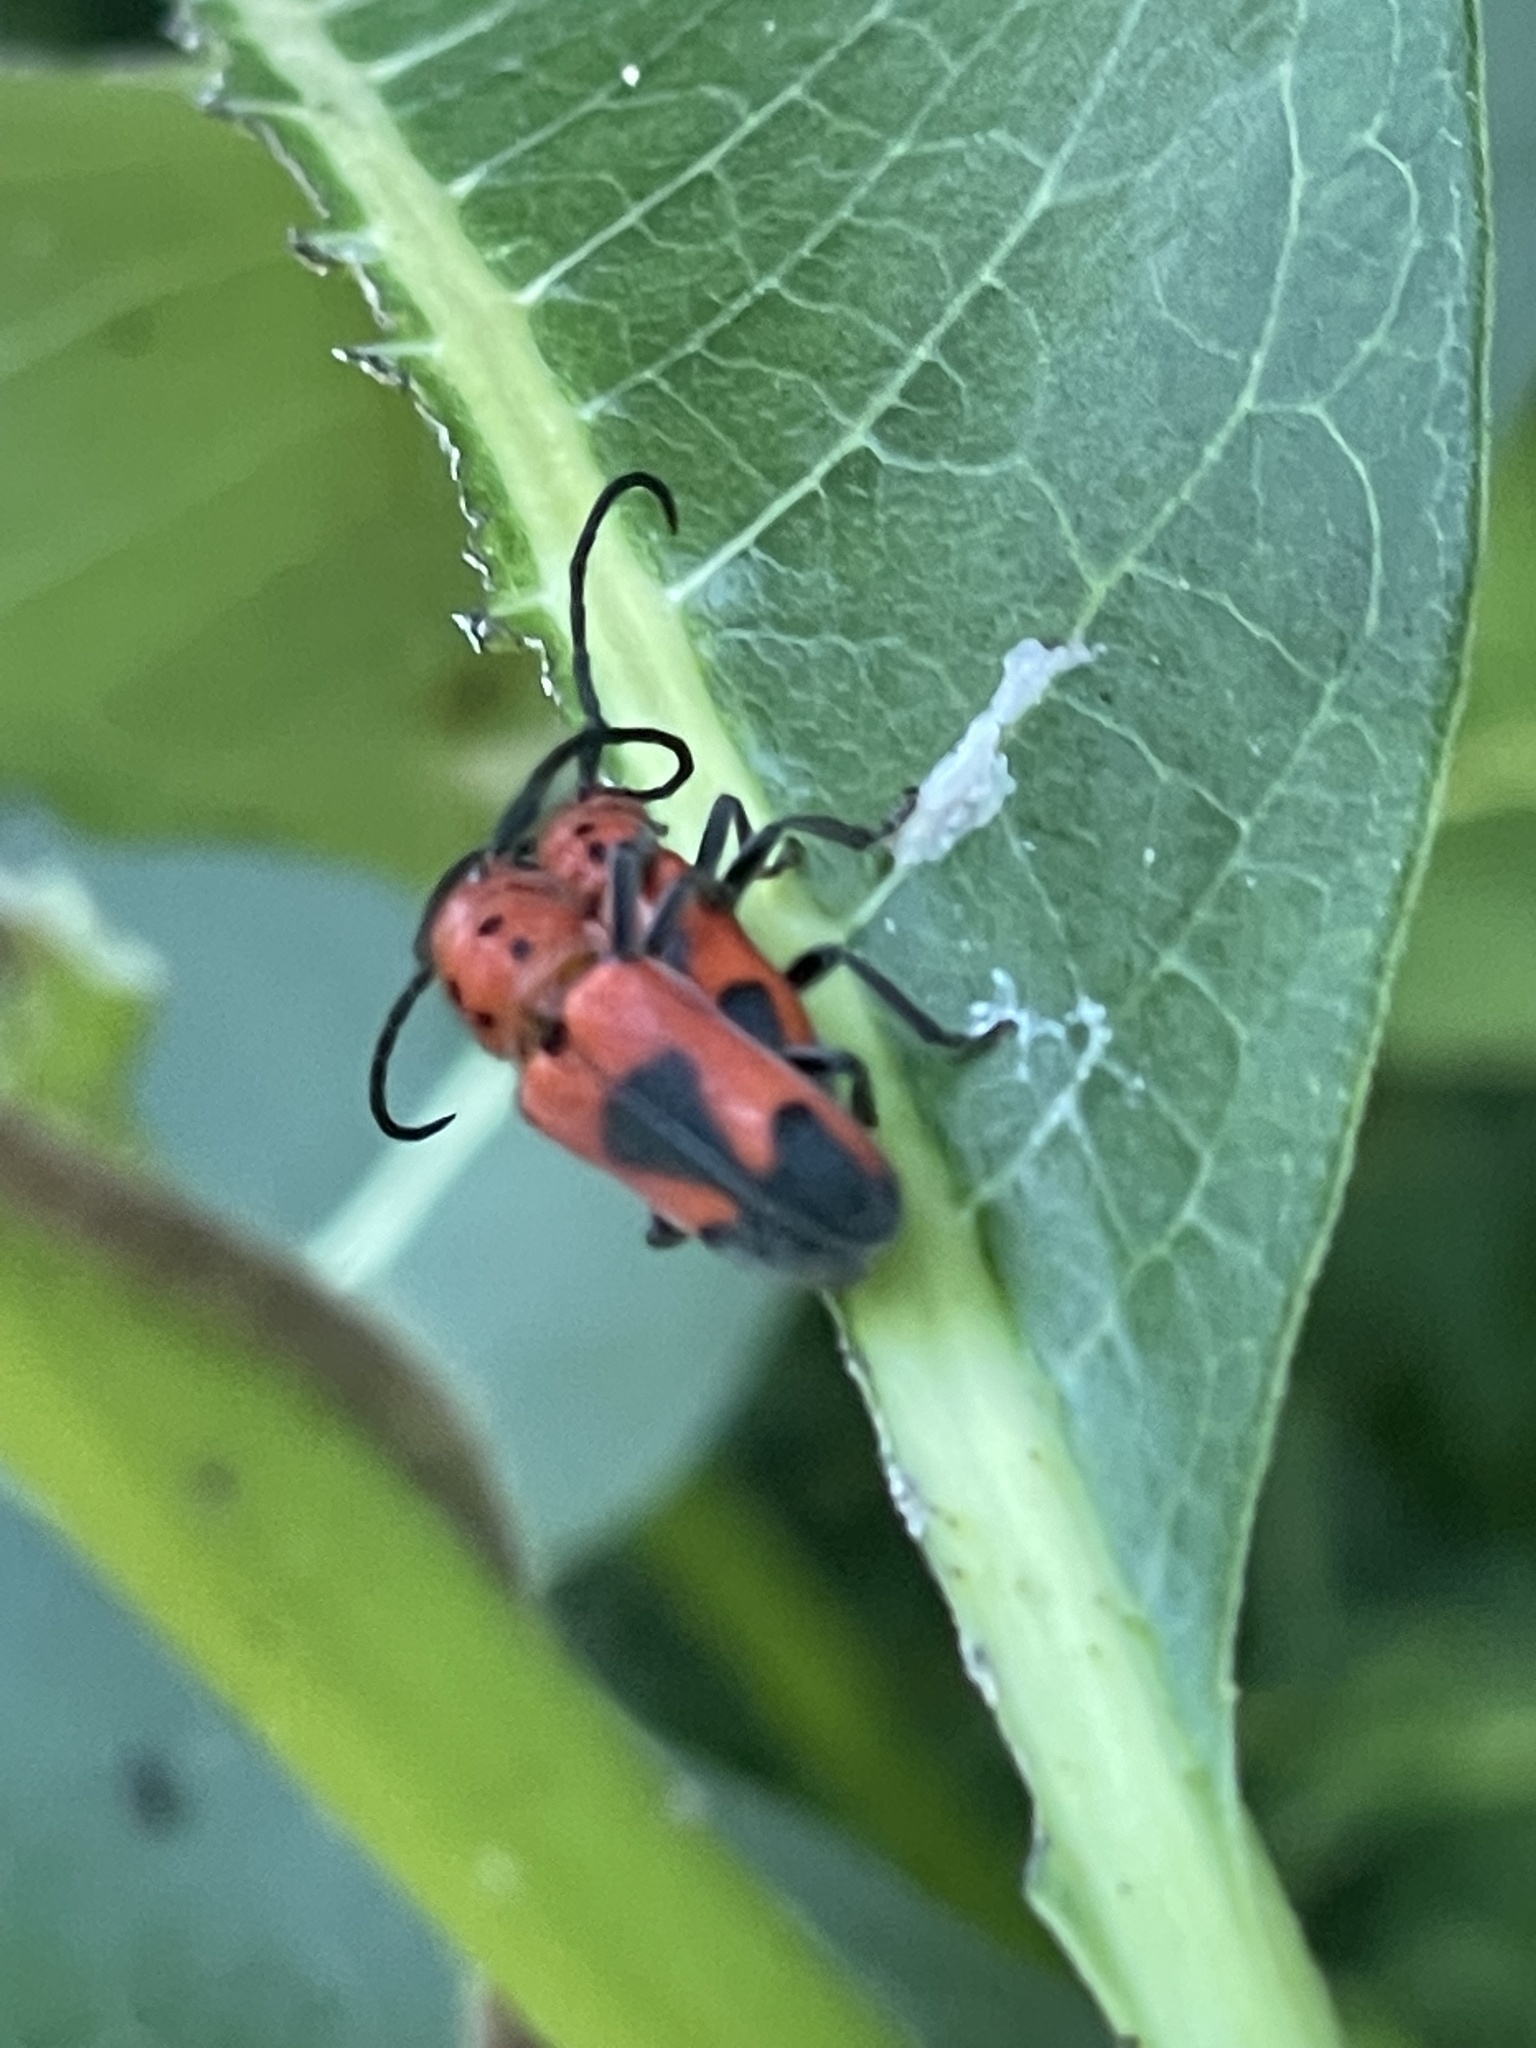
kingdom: Animalia
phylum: Arthropoda
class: Insecta
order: Coleoptera
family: Cerambycidae
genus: Tetraopes
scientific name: Tetraopes melanurus
